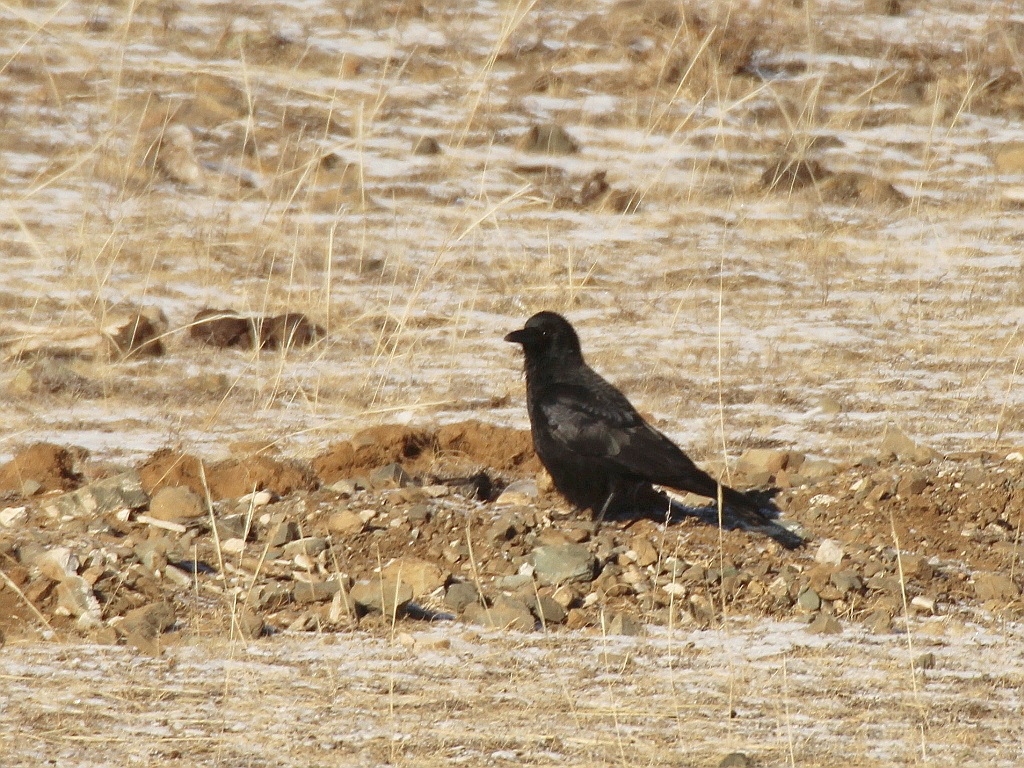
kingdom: Animalia
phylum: Chordata
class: Aves
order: Passeriformes
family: Corvidae
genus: Corvus
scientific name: Corvus corone
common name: Carrion crow
